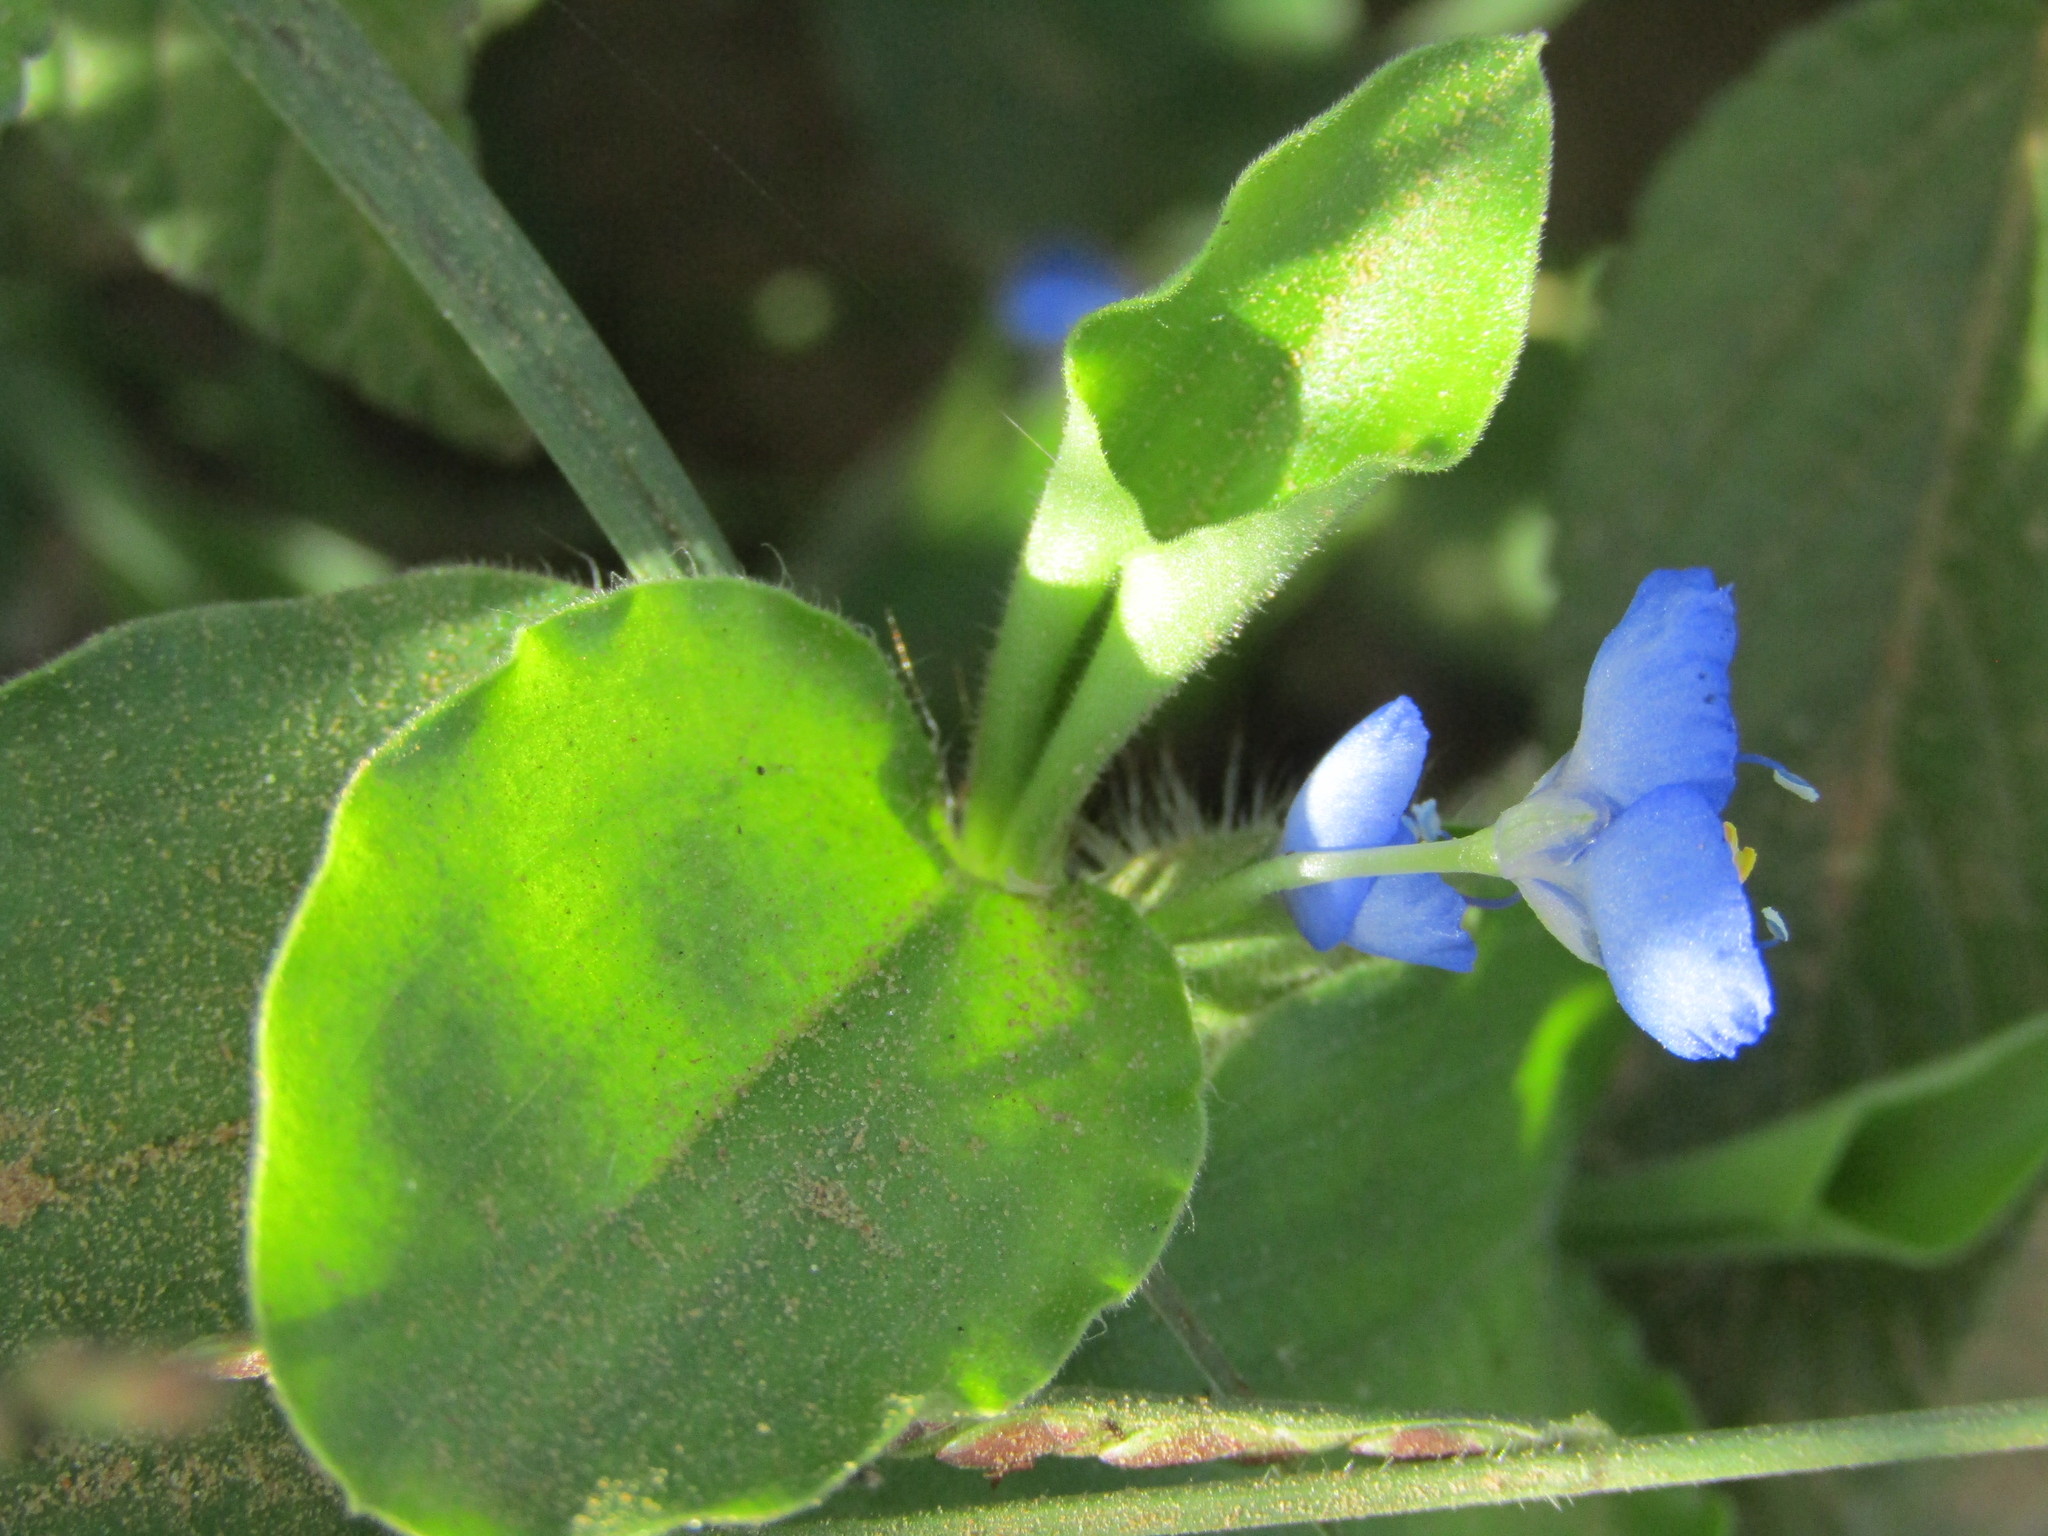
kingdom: Plantae
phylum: Tracheophyta
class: Liliopsida
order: Commelinales
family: Commelinaceae
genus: Commelina
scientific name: Commelina benghalensis
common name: Jio
